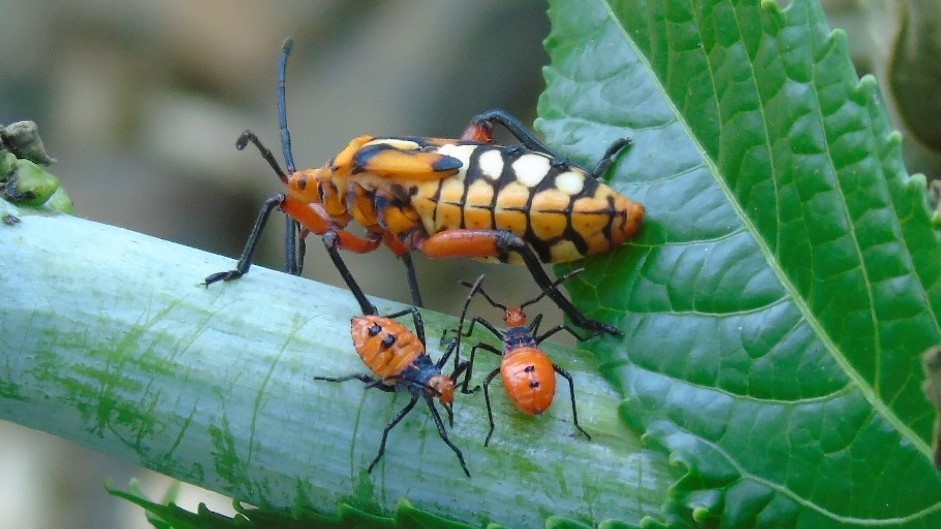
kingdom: Animalia
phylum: Arthropoda
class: Insecta
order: Hemiptera
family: Coreidae
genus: Sagotylus
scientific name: Sagotylus confluens
